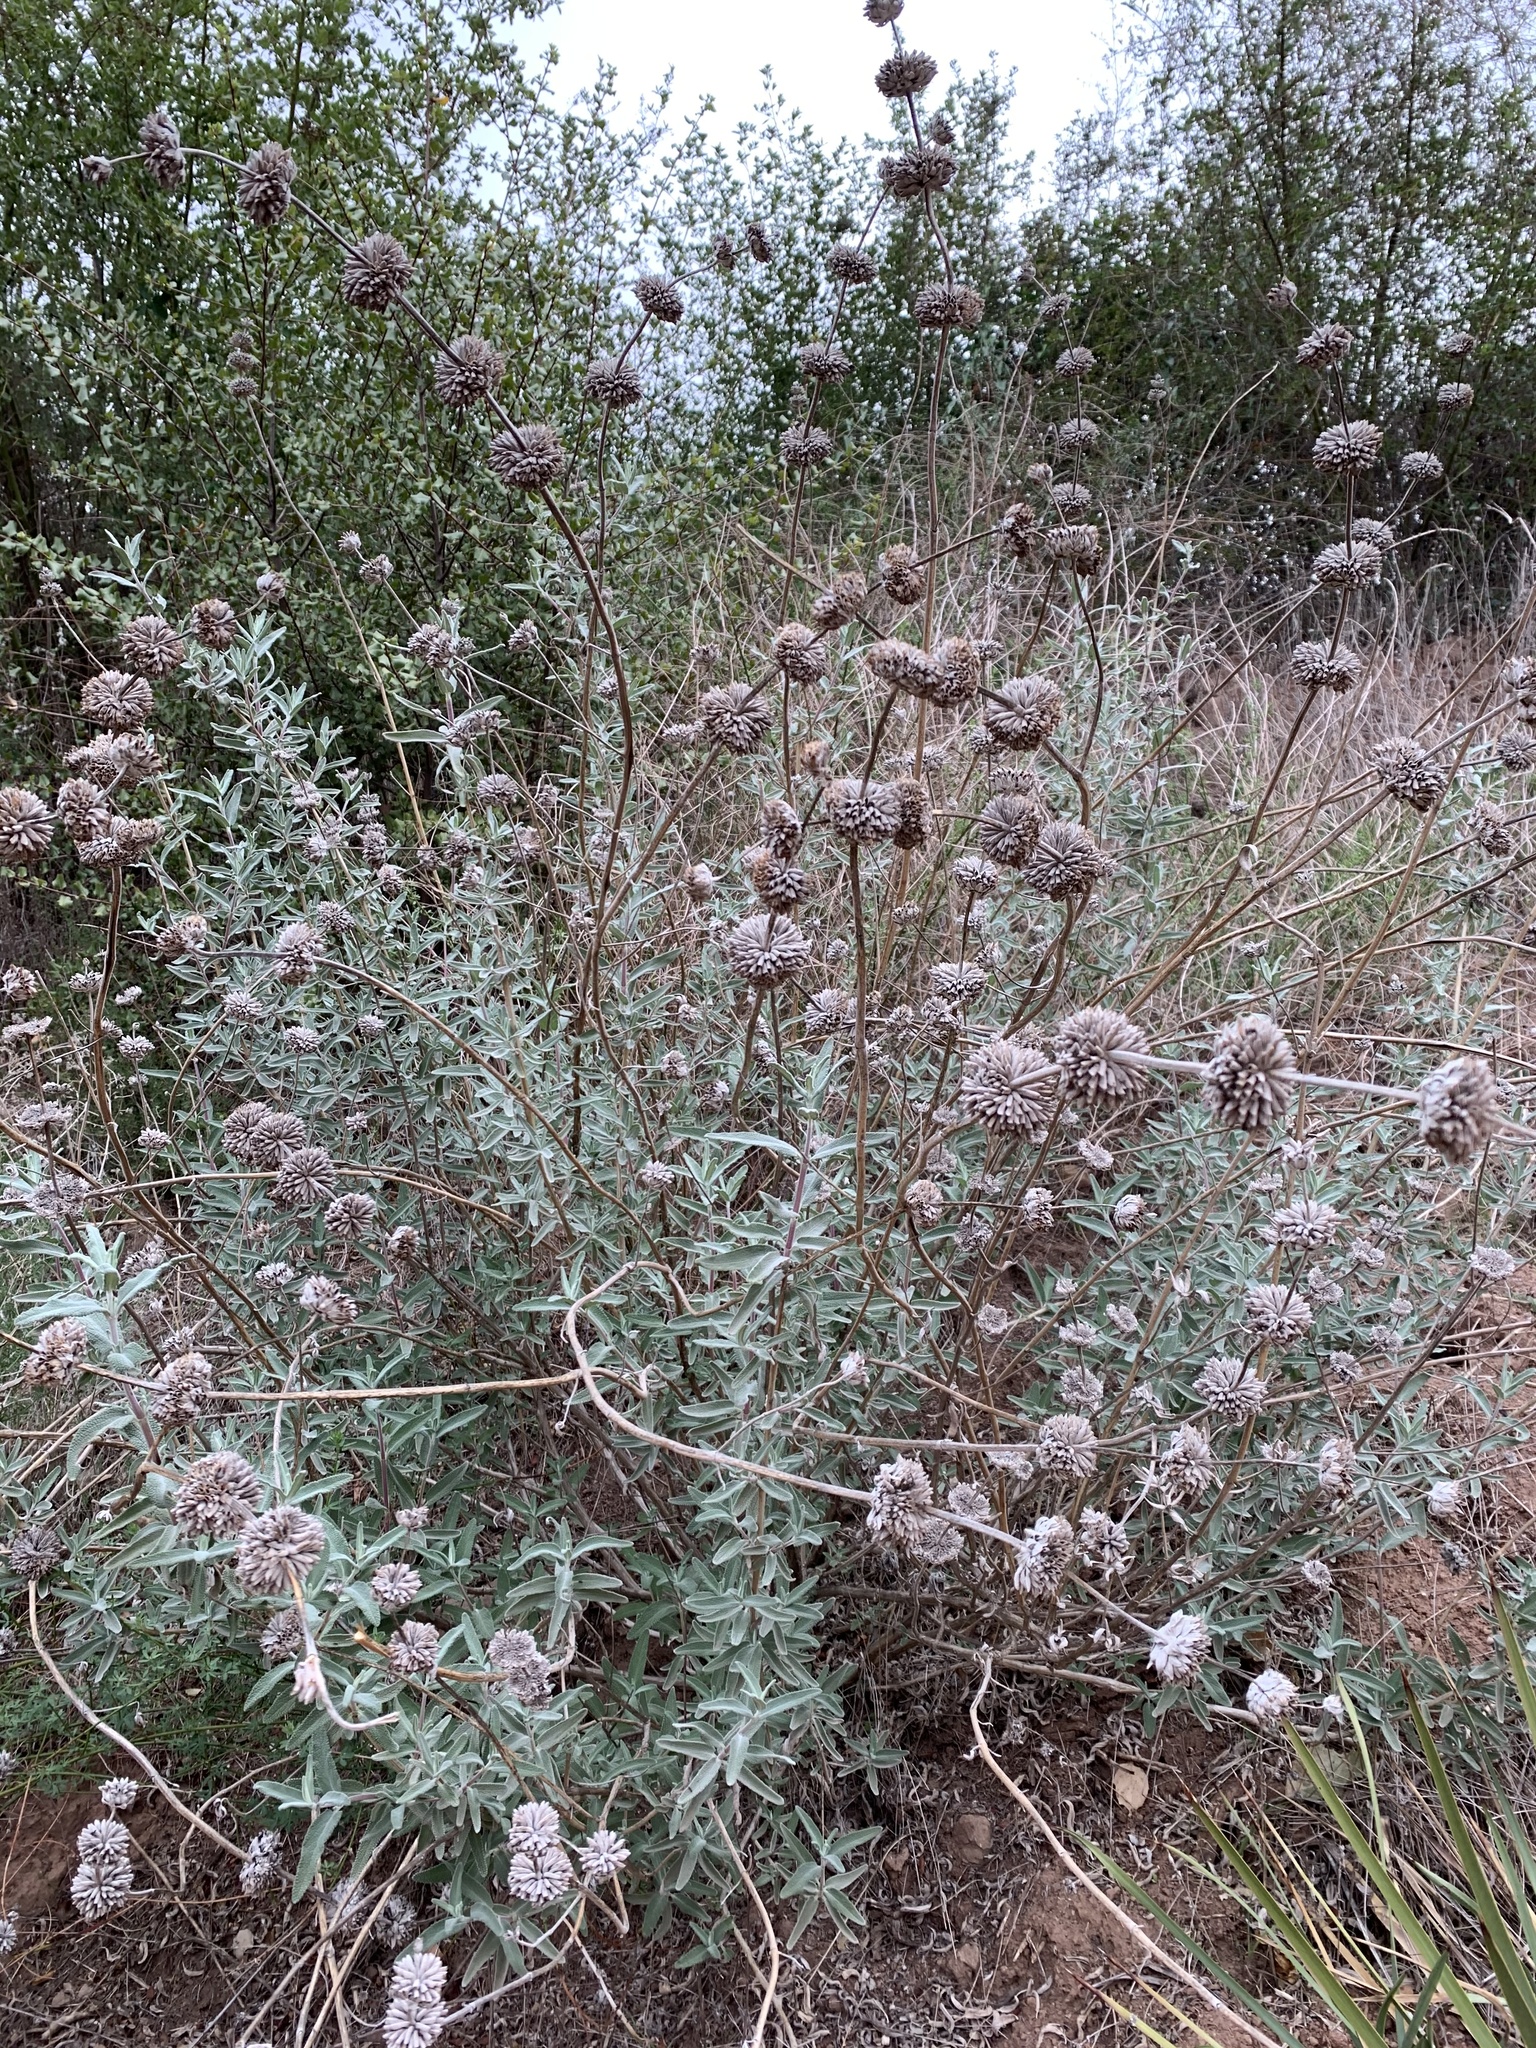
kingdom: Plantae
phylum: Tracheophyta
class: Magnoliopsida
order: Lamiales
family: Lamiaceae
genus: Salvia
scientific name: Salvia leucophylla
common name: Purple sage
